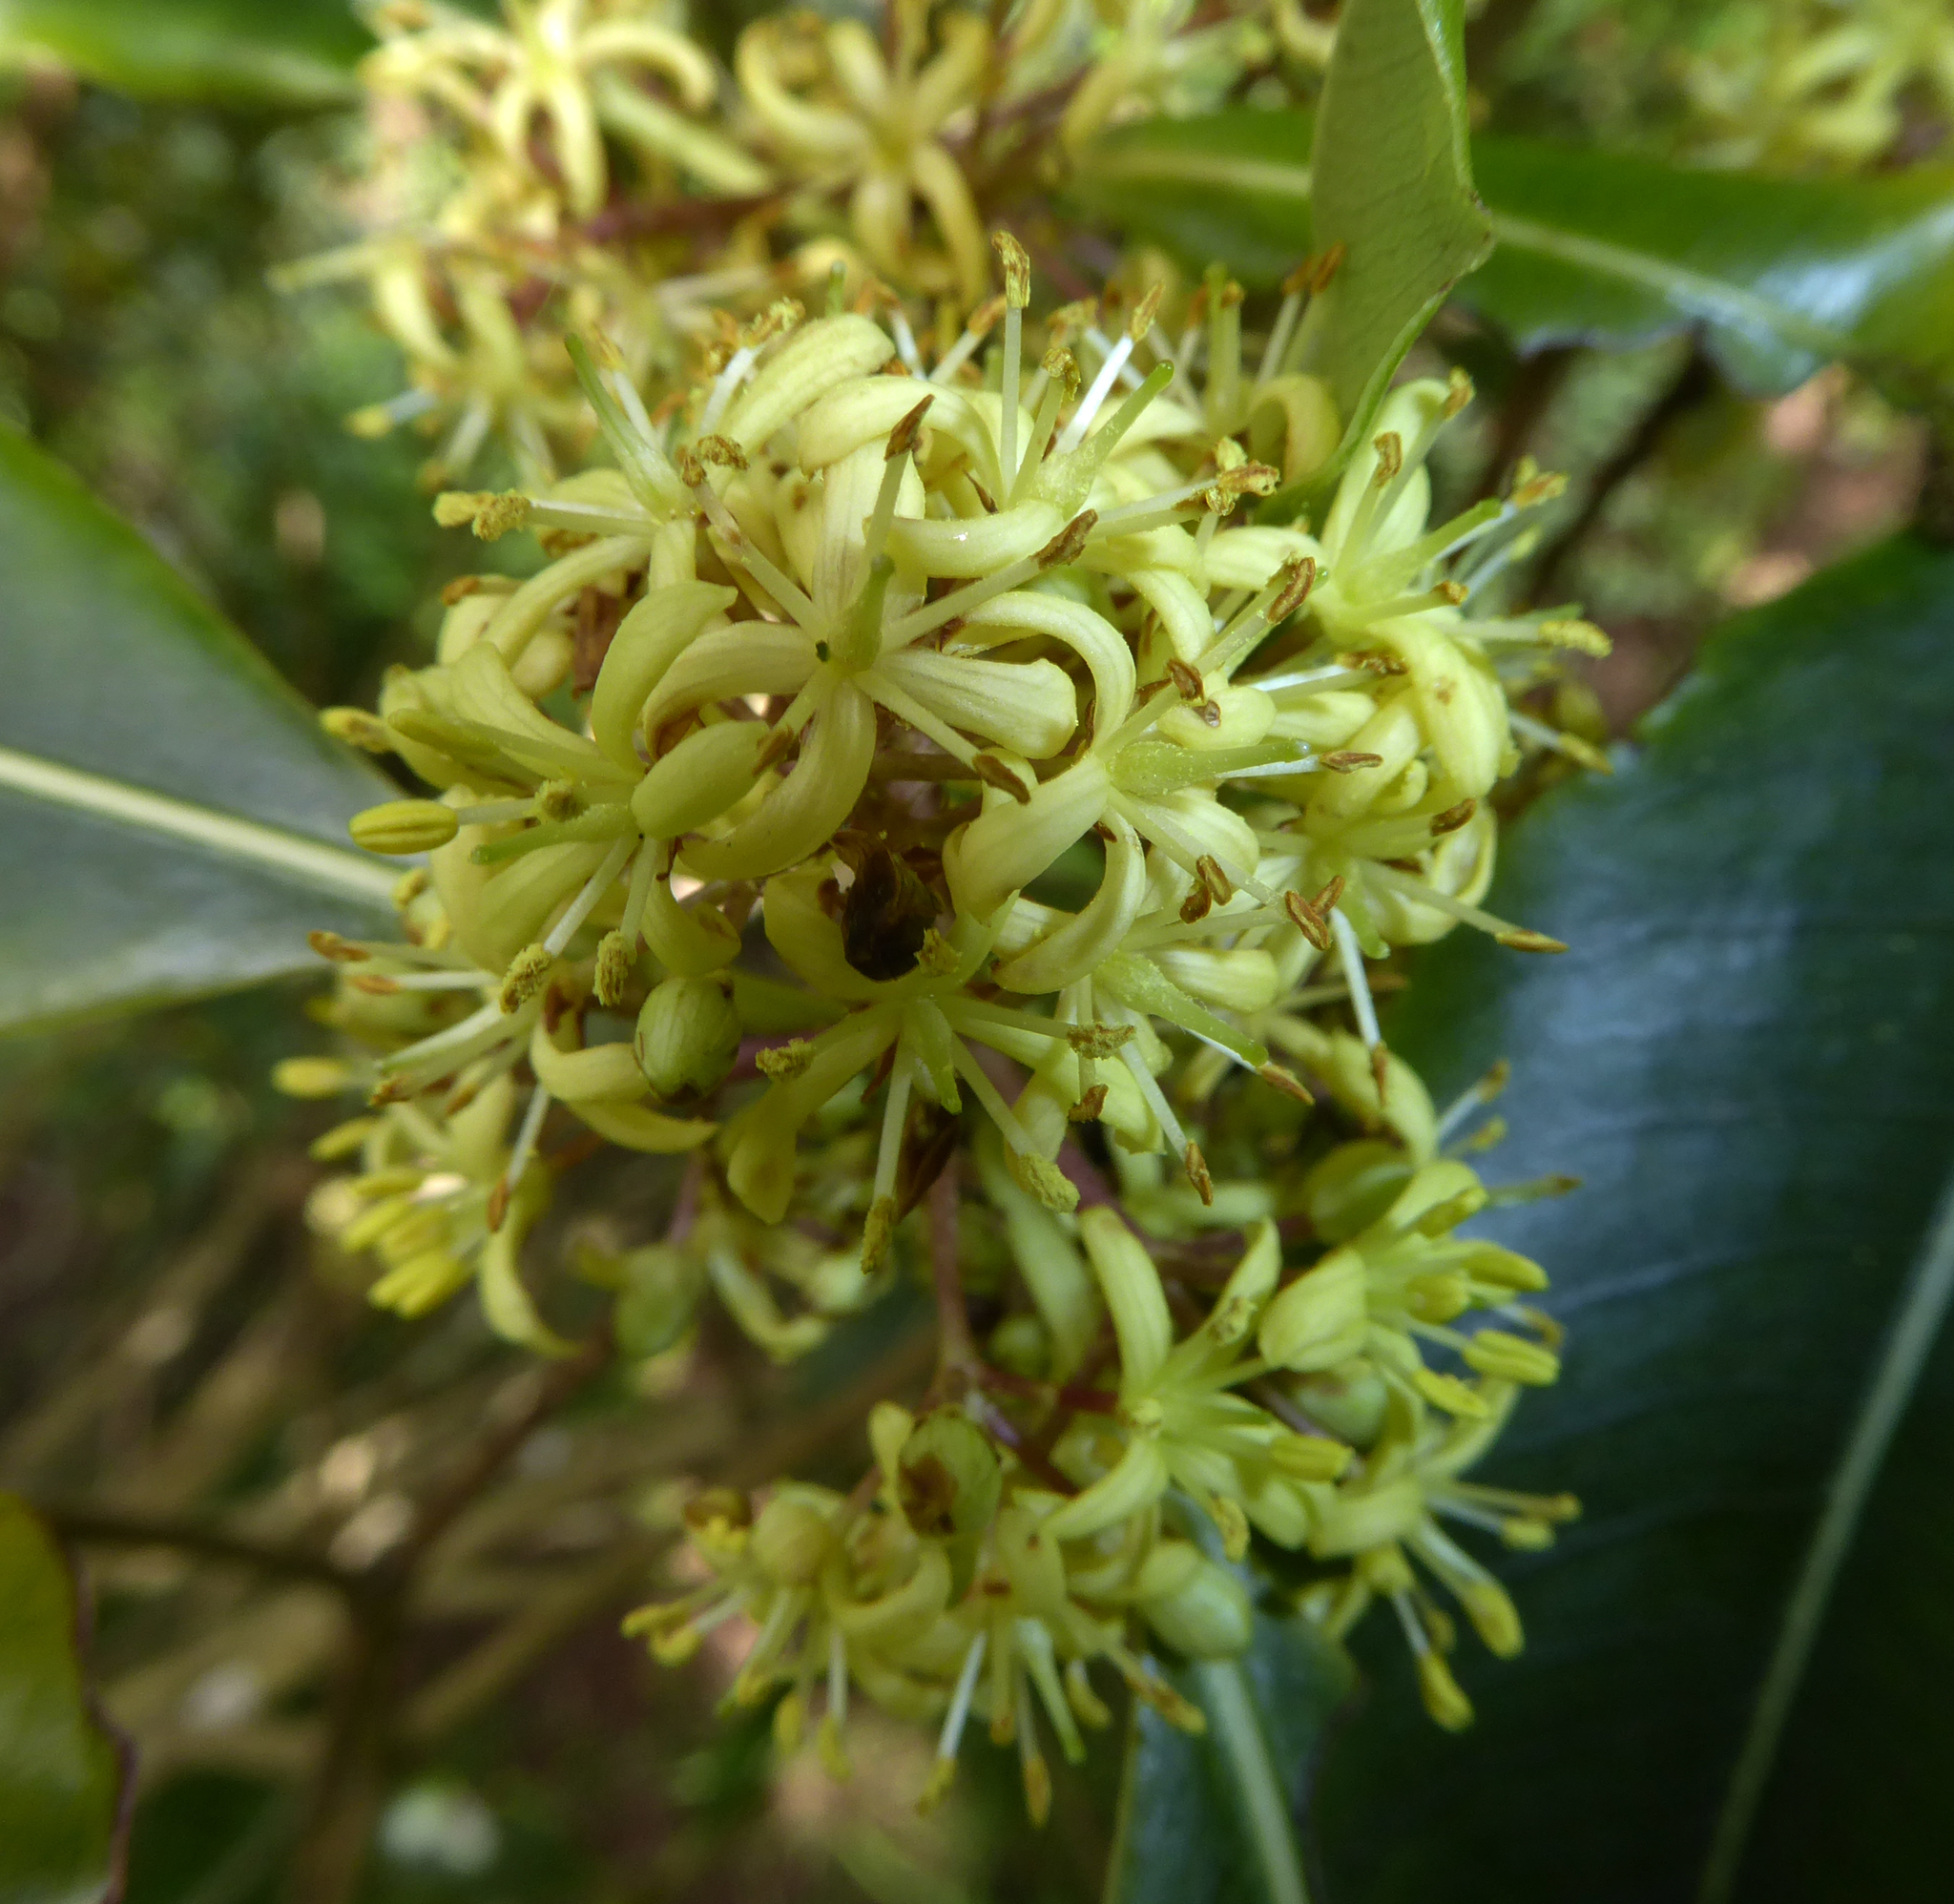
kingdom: Plantae
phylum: Tracheophyta
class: Magnoliopsida
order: Apiales
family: Pittosporaceae
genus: Pittosporum
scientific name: Pittosporum eugenioides
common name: Lemonwood
